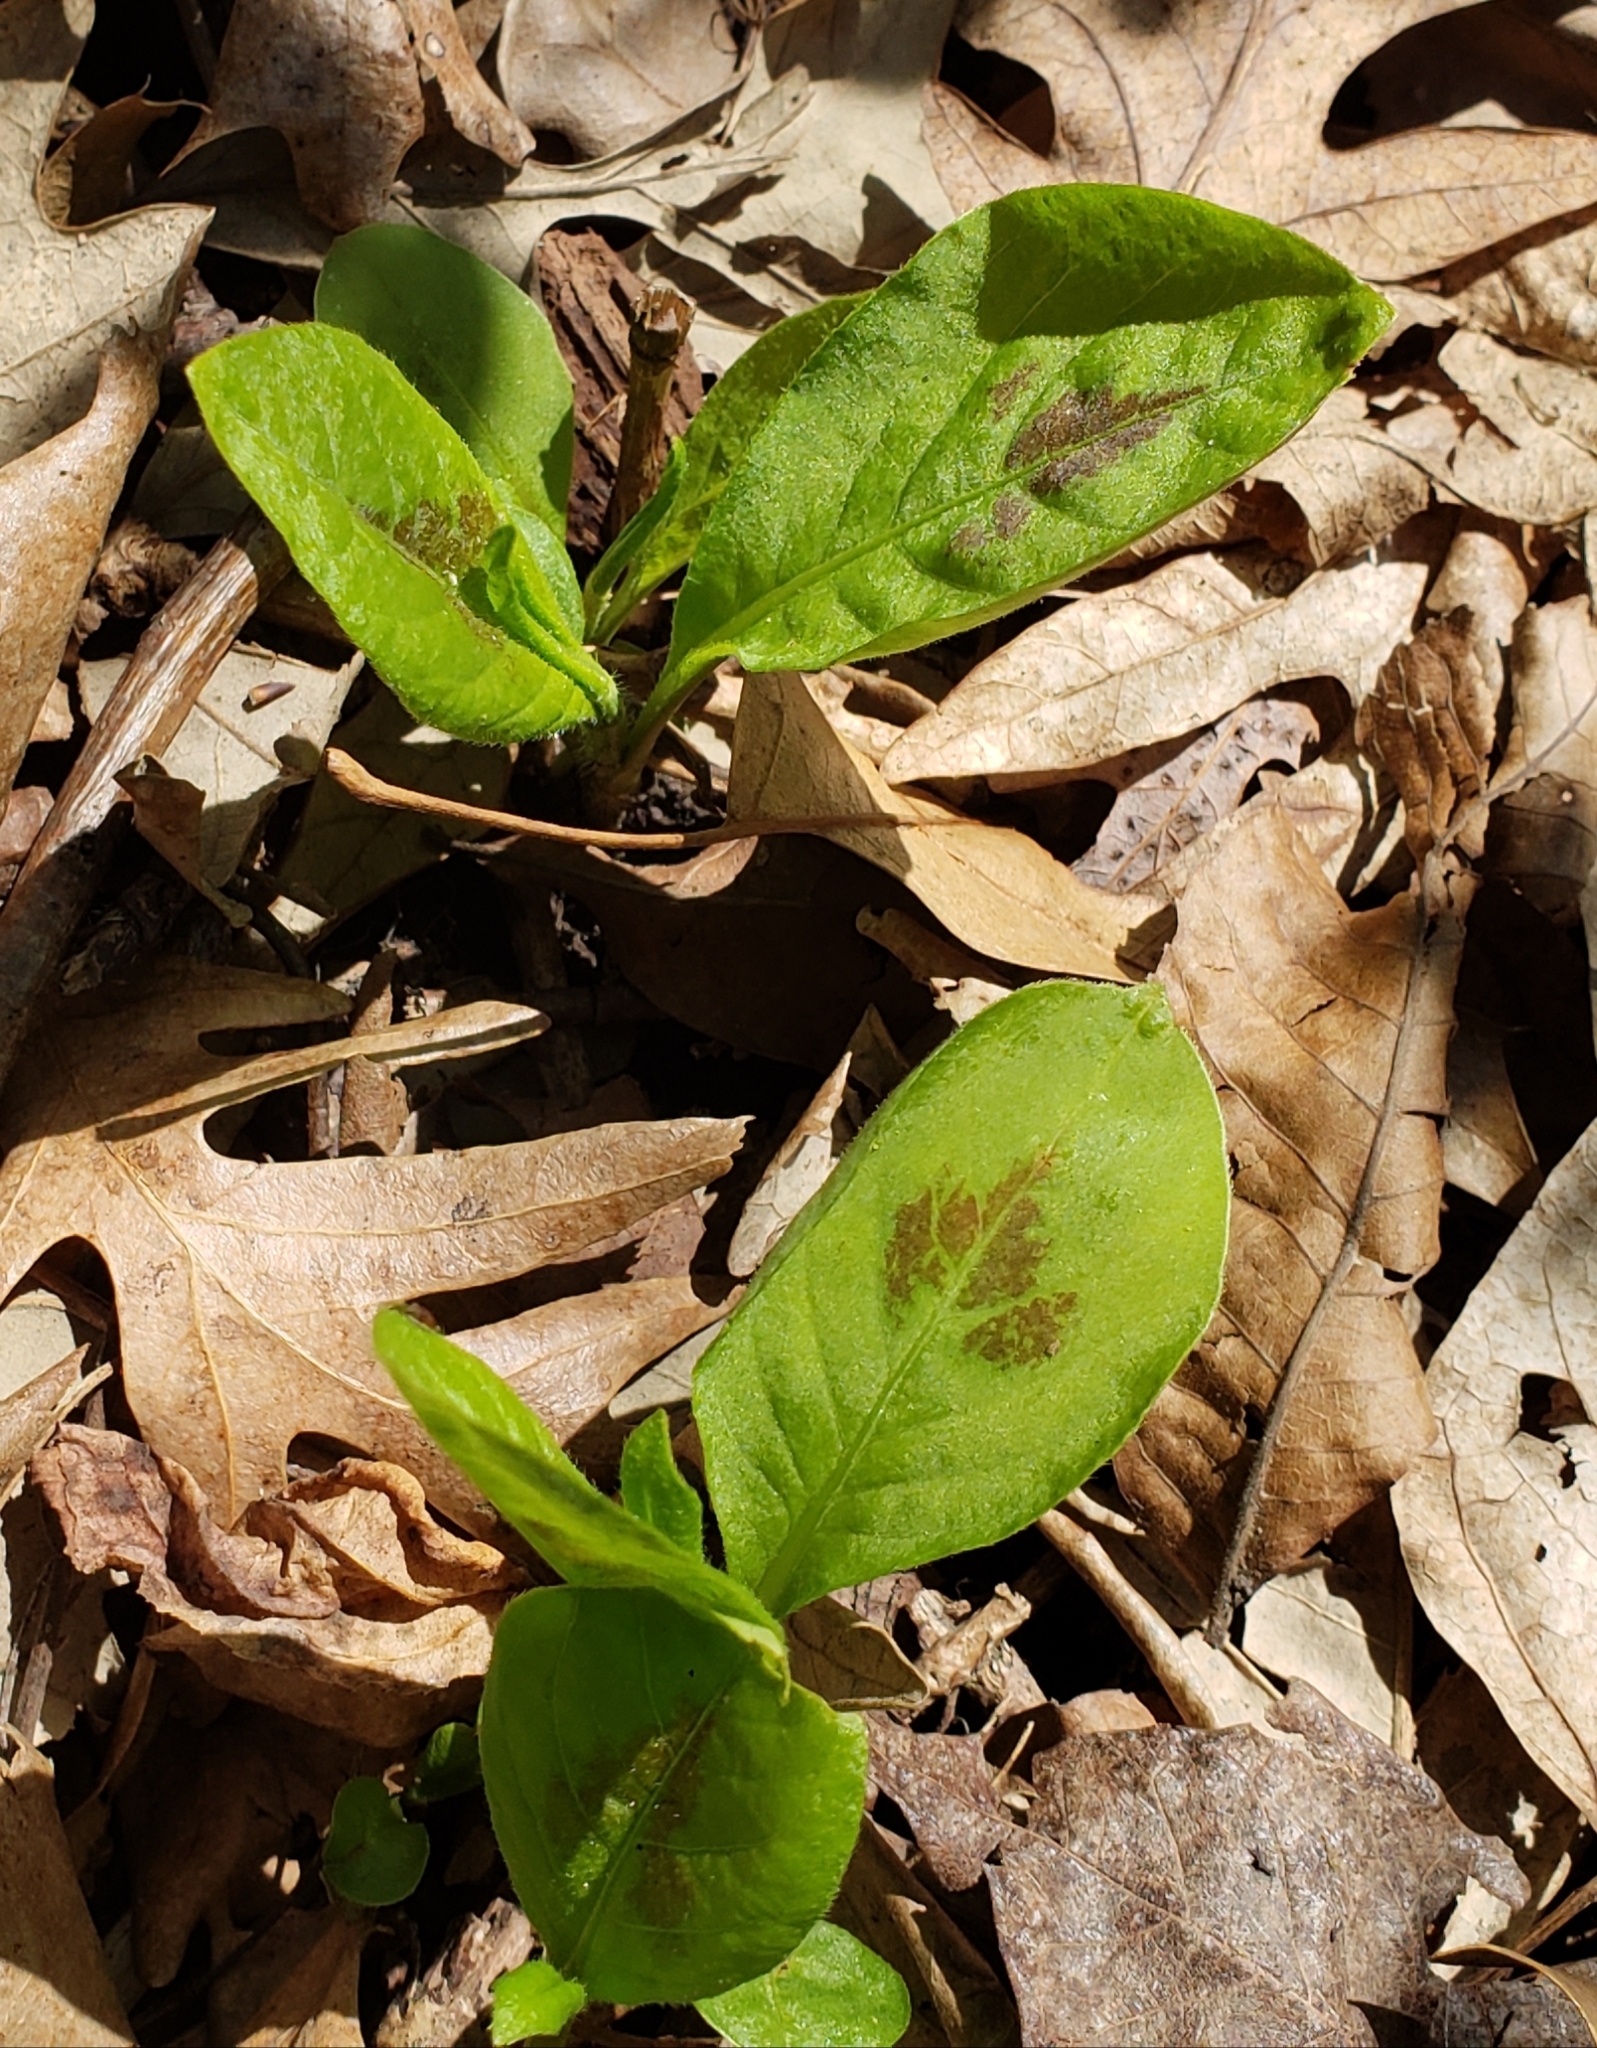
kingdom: Plantae
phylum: Tracheophyta
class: Magnoliopsida
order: Caryophyllales
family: Polygonaceae
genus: Persicaria
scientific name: Persicaria virginiana
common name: Jumpseed
